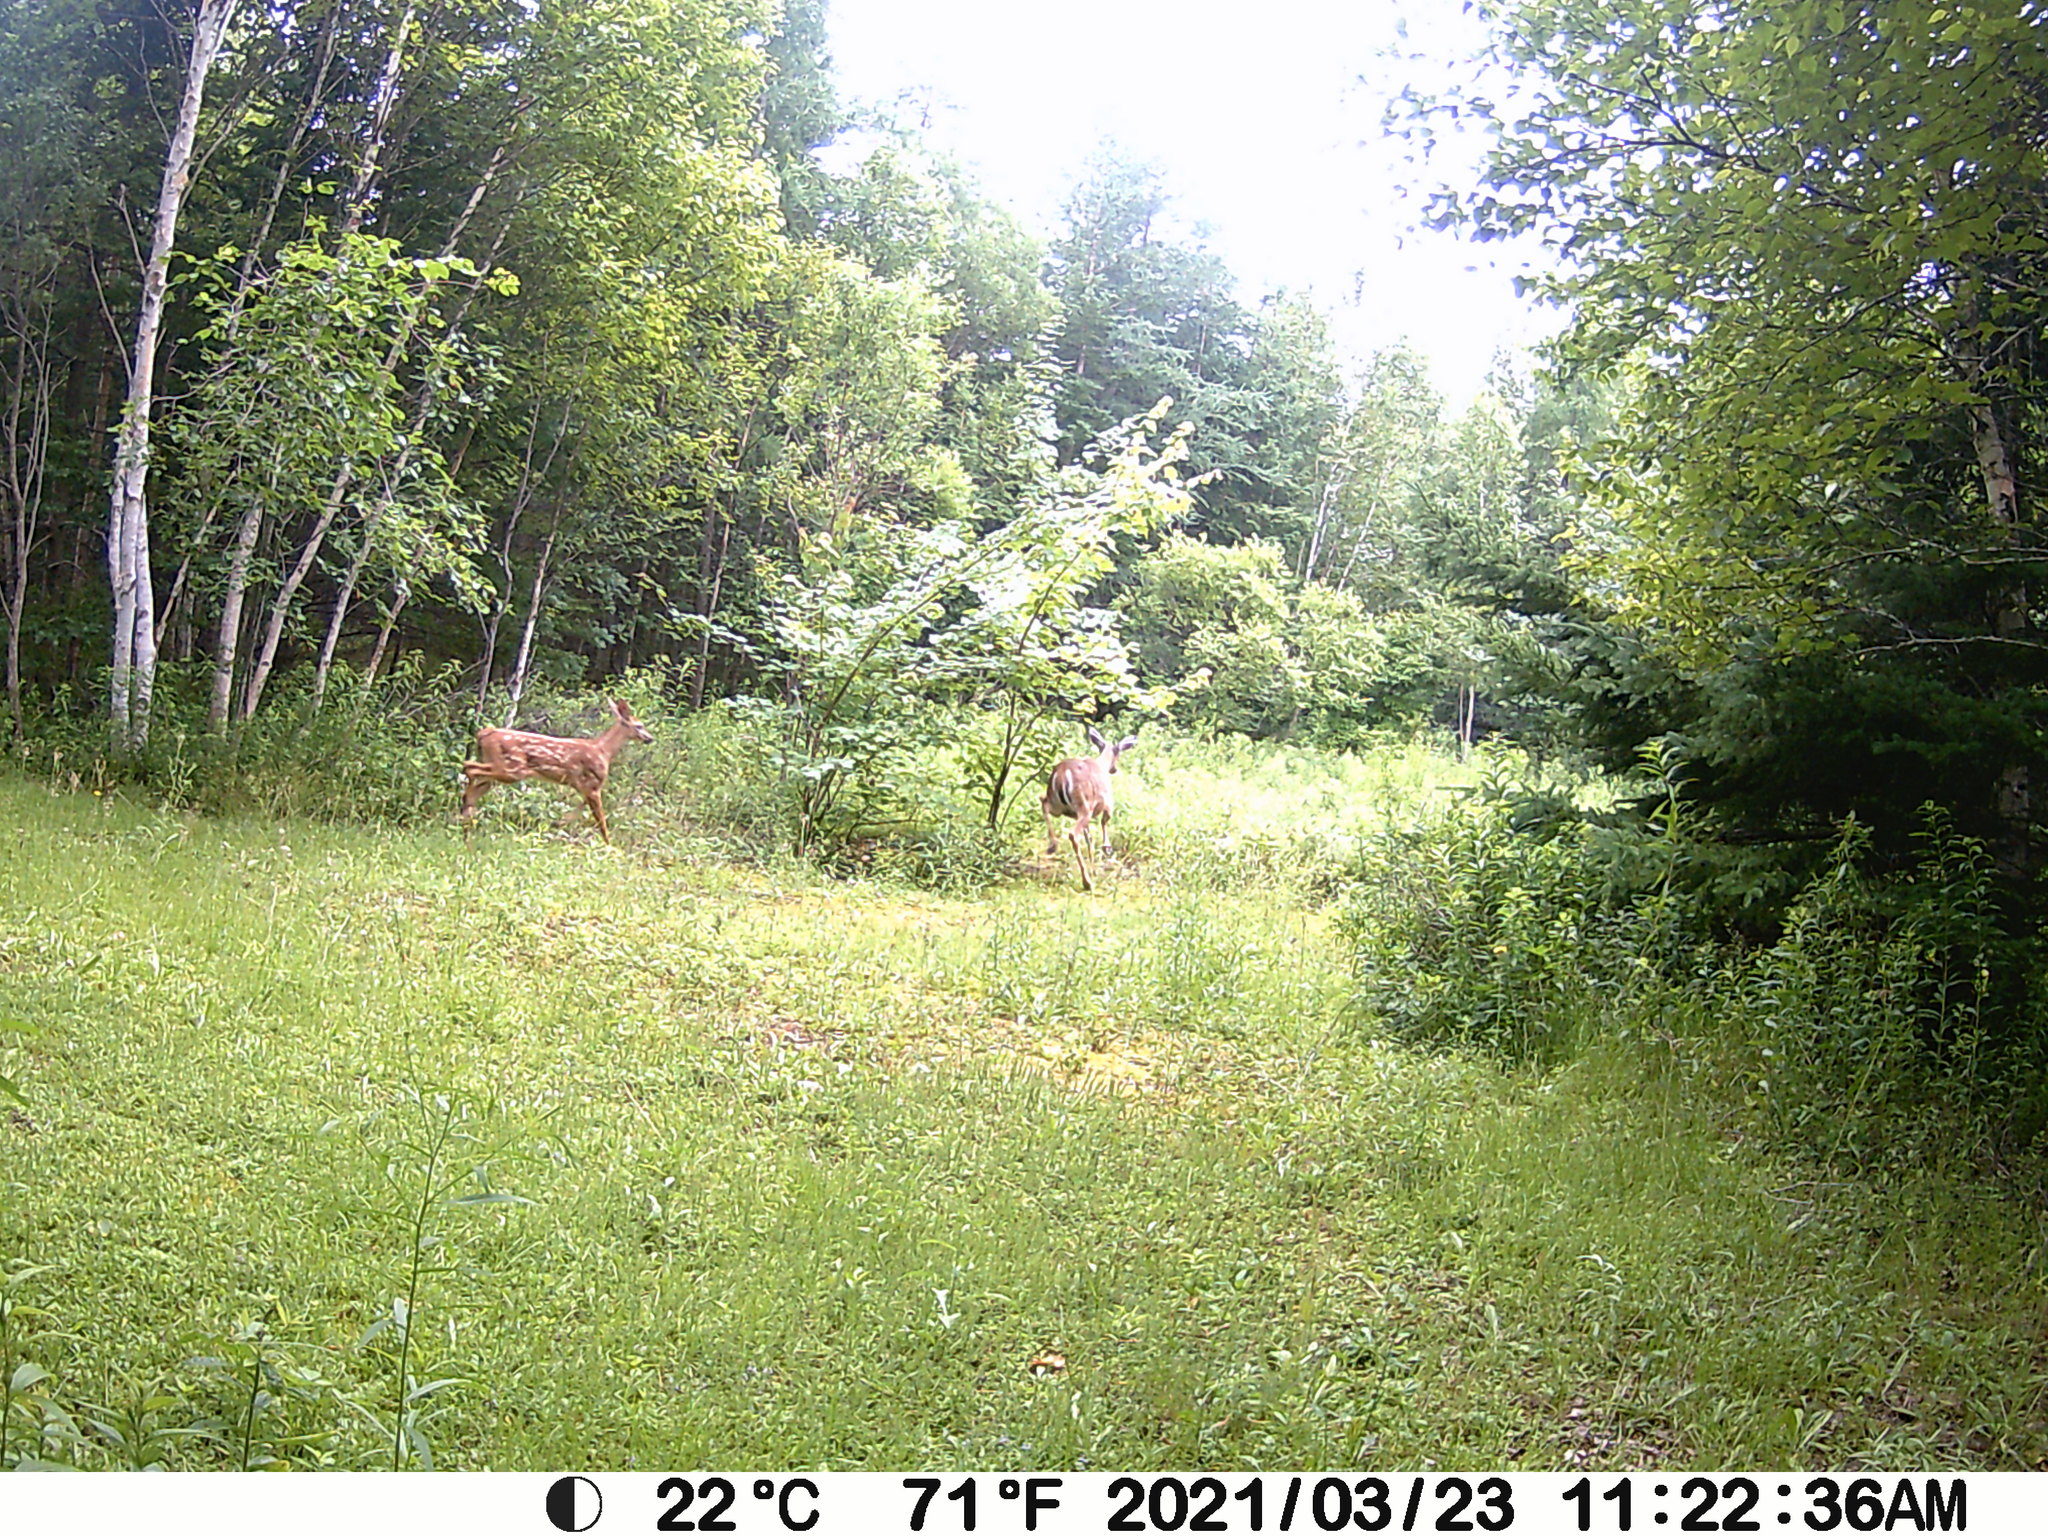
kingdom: Animalia
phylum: Chordata
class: Mammalia
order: Artiodactyla
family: Cervidae
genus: Odocoileus
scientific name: Odocoileus virginianus
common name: White-tailed deer
